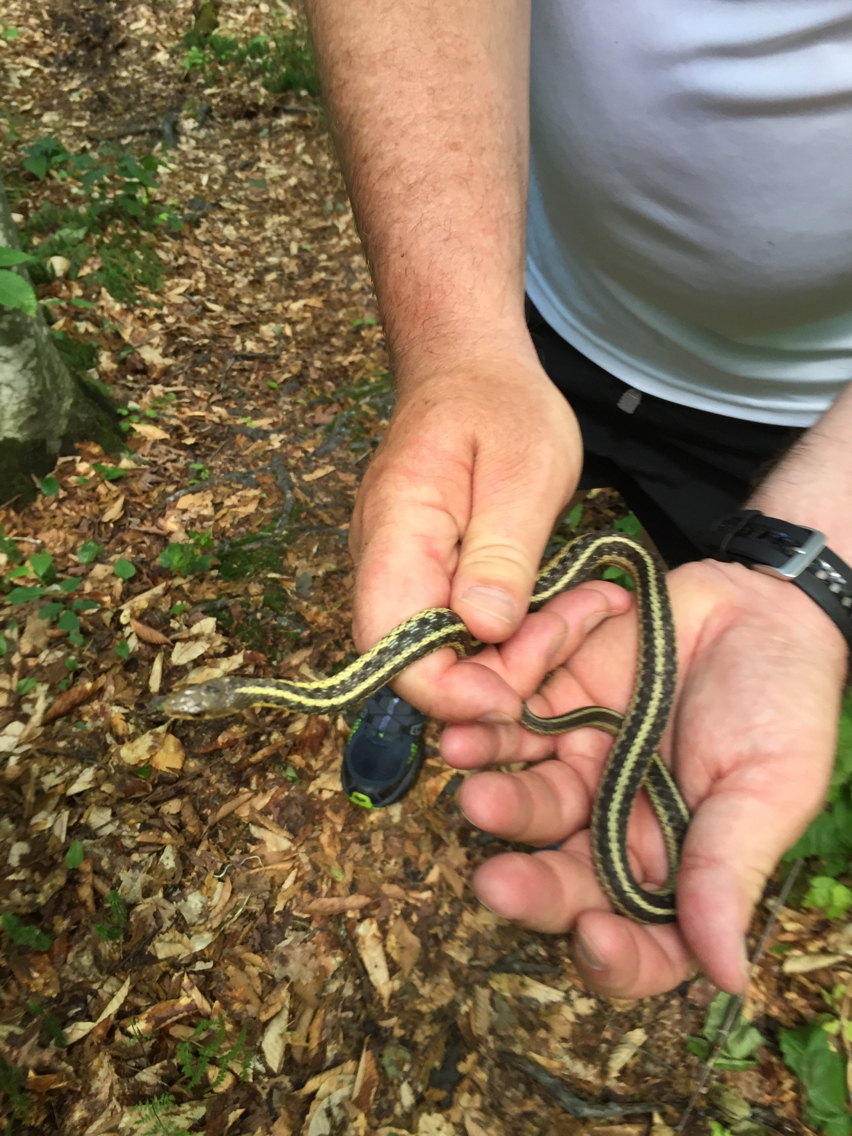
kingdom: Animalia
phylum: Chordata
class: Squamata
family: Colubridae
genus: Thamnophis
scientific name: Thamnophis sirtalis
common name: Common garter snake
